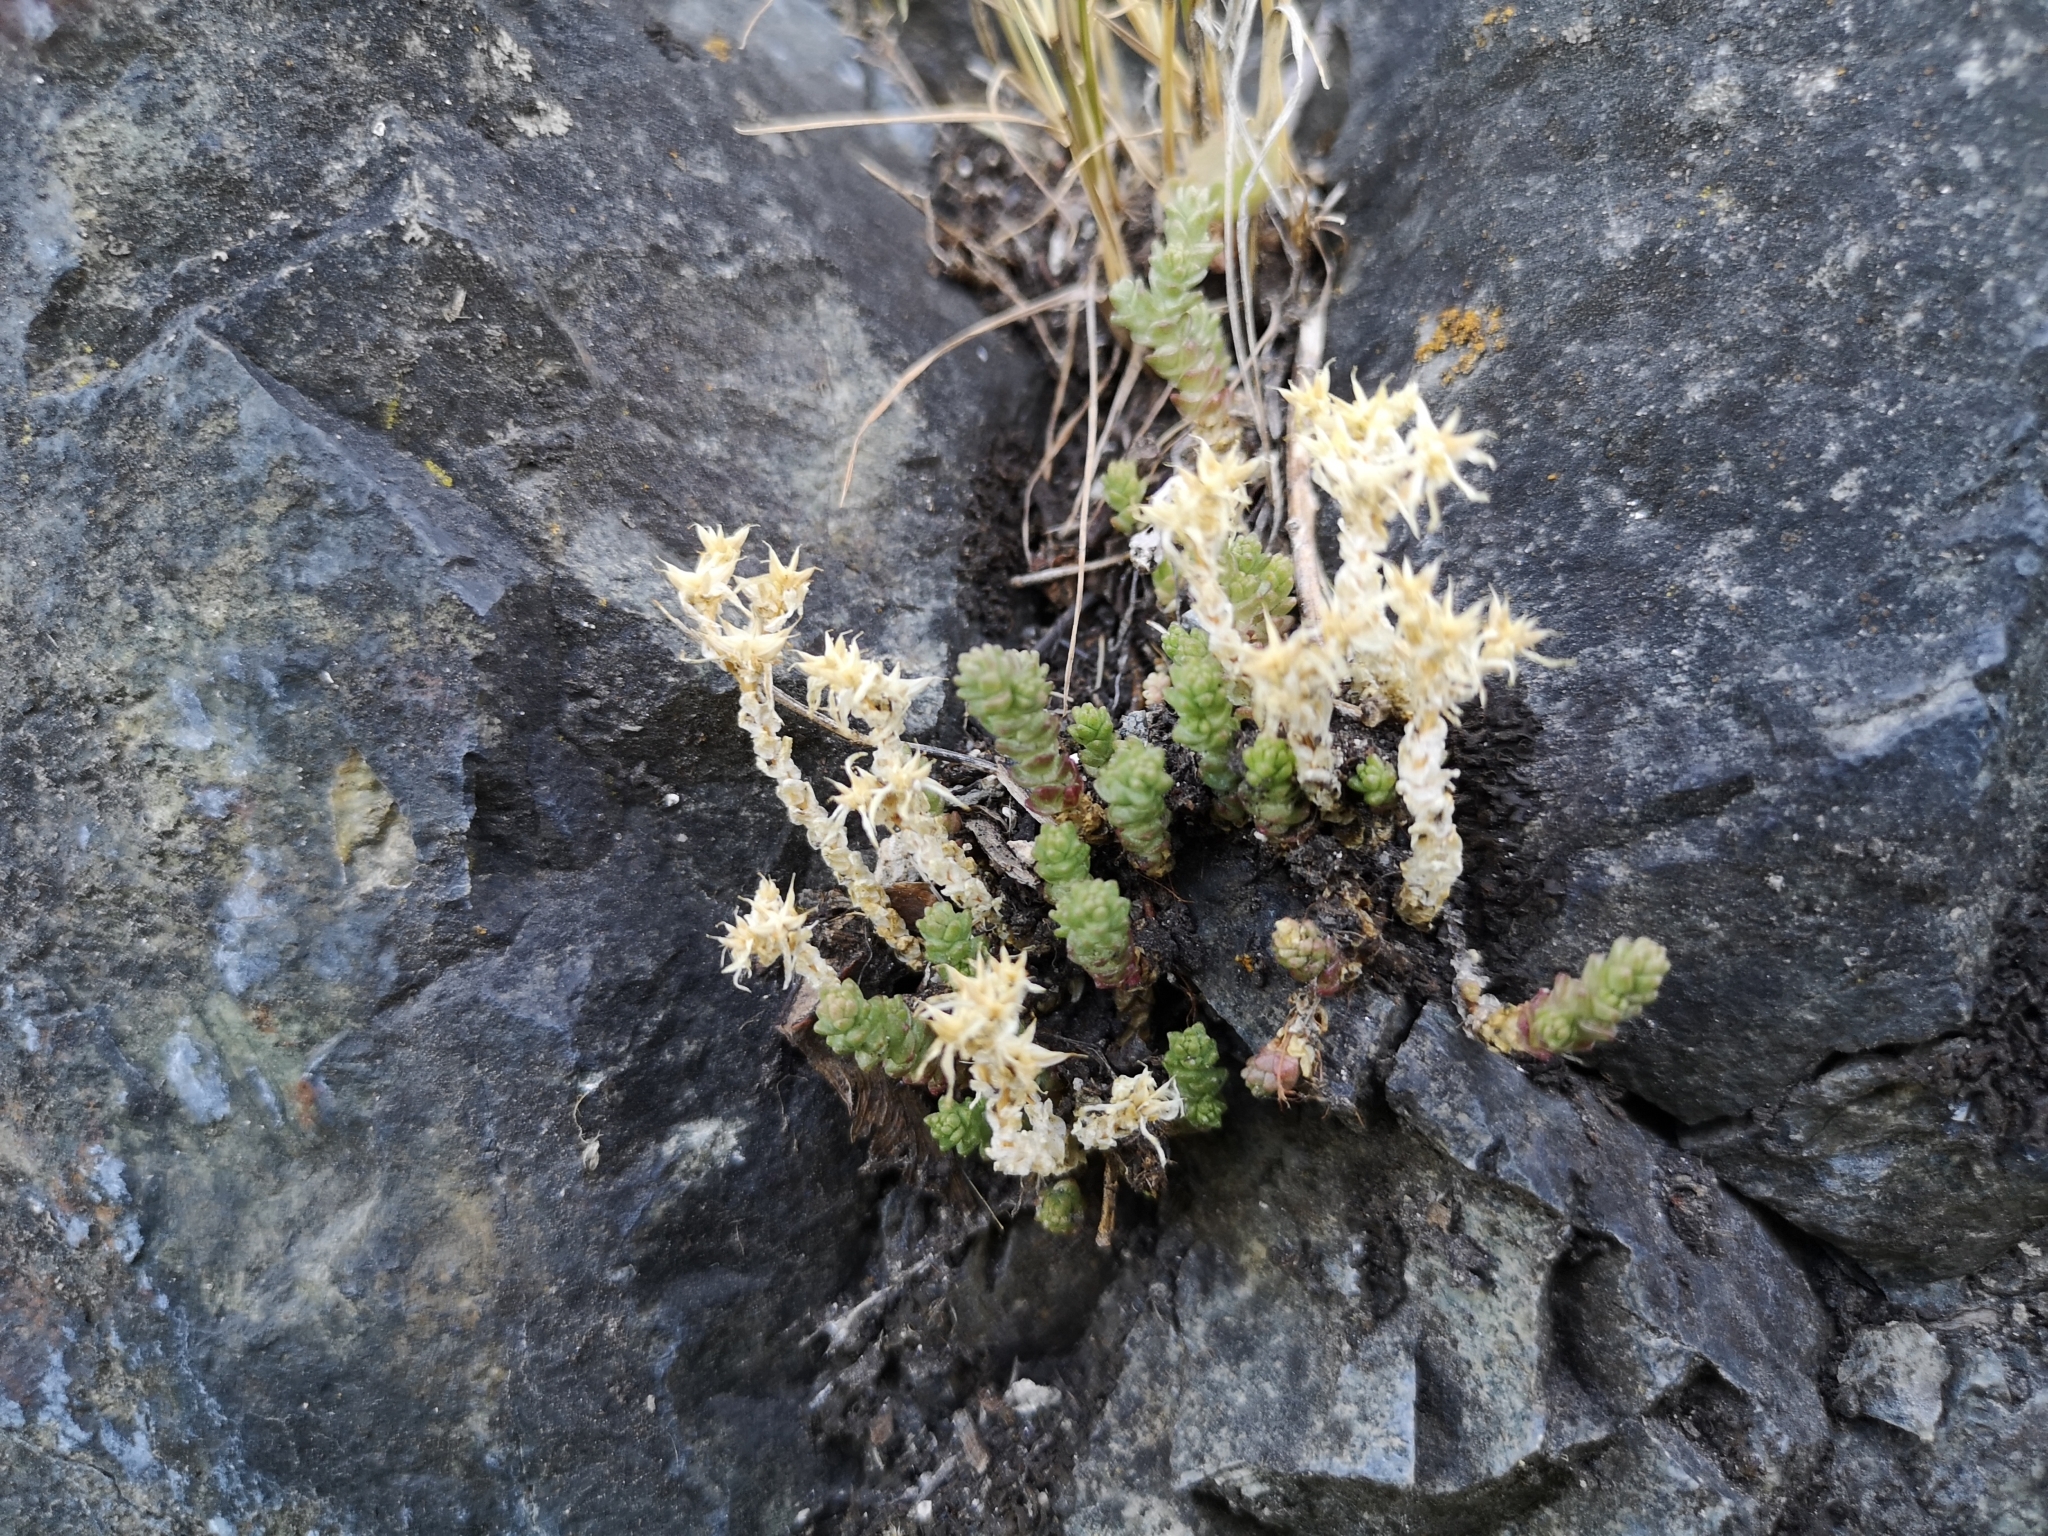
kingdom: Plantae
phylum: Tracheophyta
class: Magnoliopsida
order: Saxifragales
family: Crassulaceae
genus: Sedum
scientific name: Sedum acre
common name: Biting stonecrop
